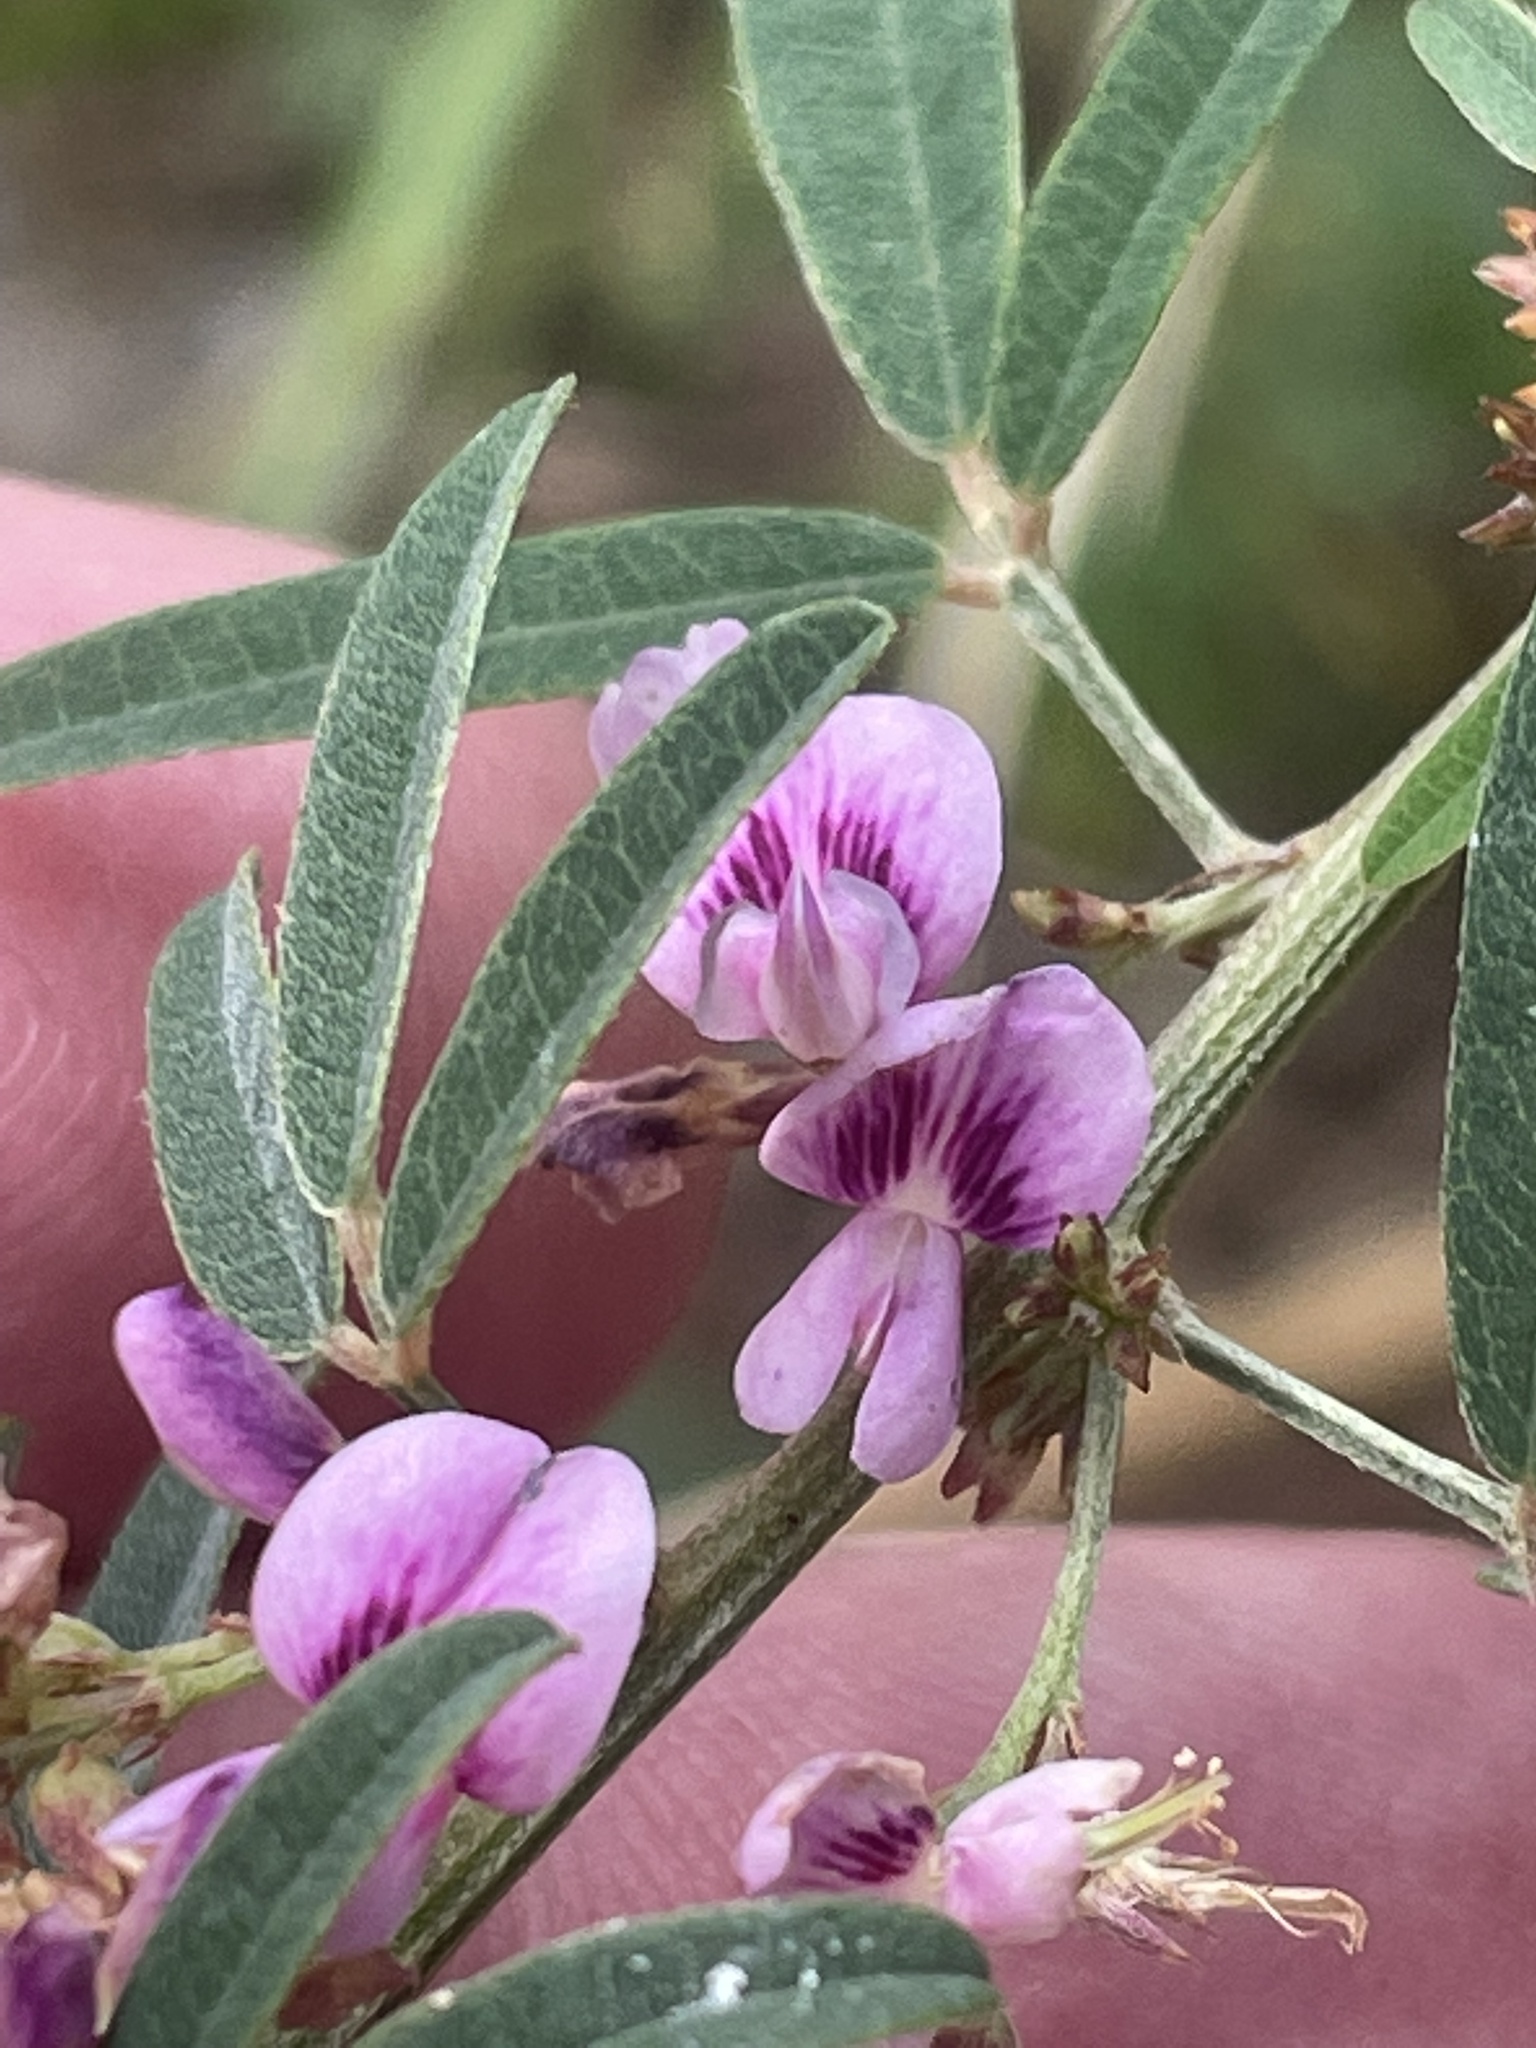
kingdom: Plantae
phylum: Tracheophyta
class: Magnoliopsida
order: Fabales
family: Fabaceae
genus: Lespedeza
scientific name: Lespedeza virginica
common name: Slender bush-clover
